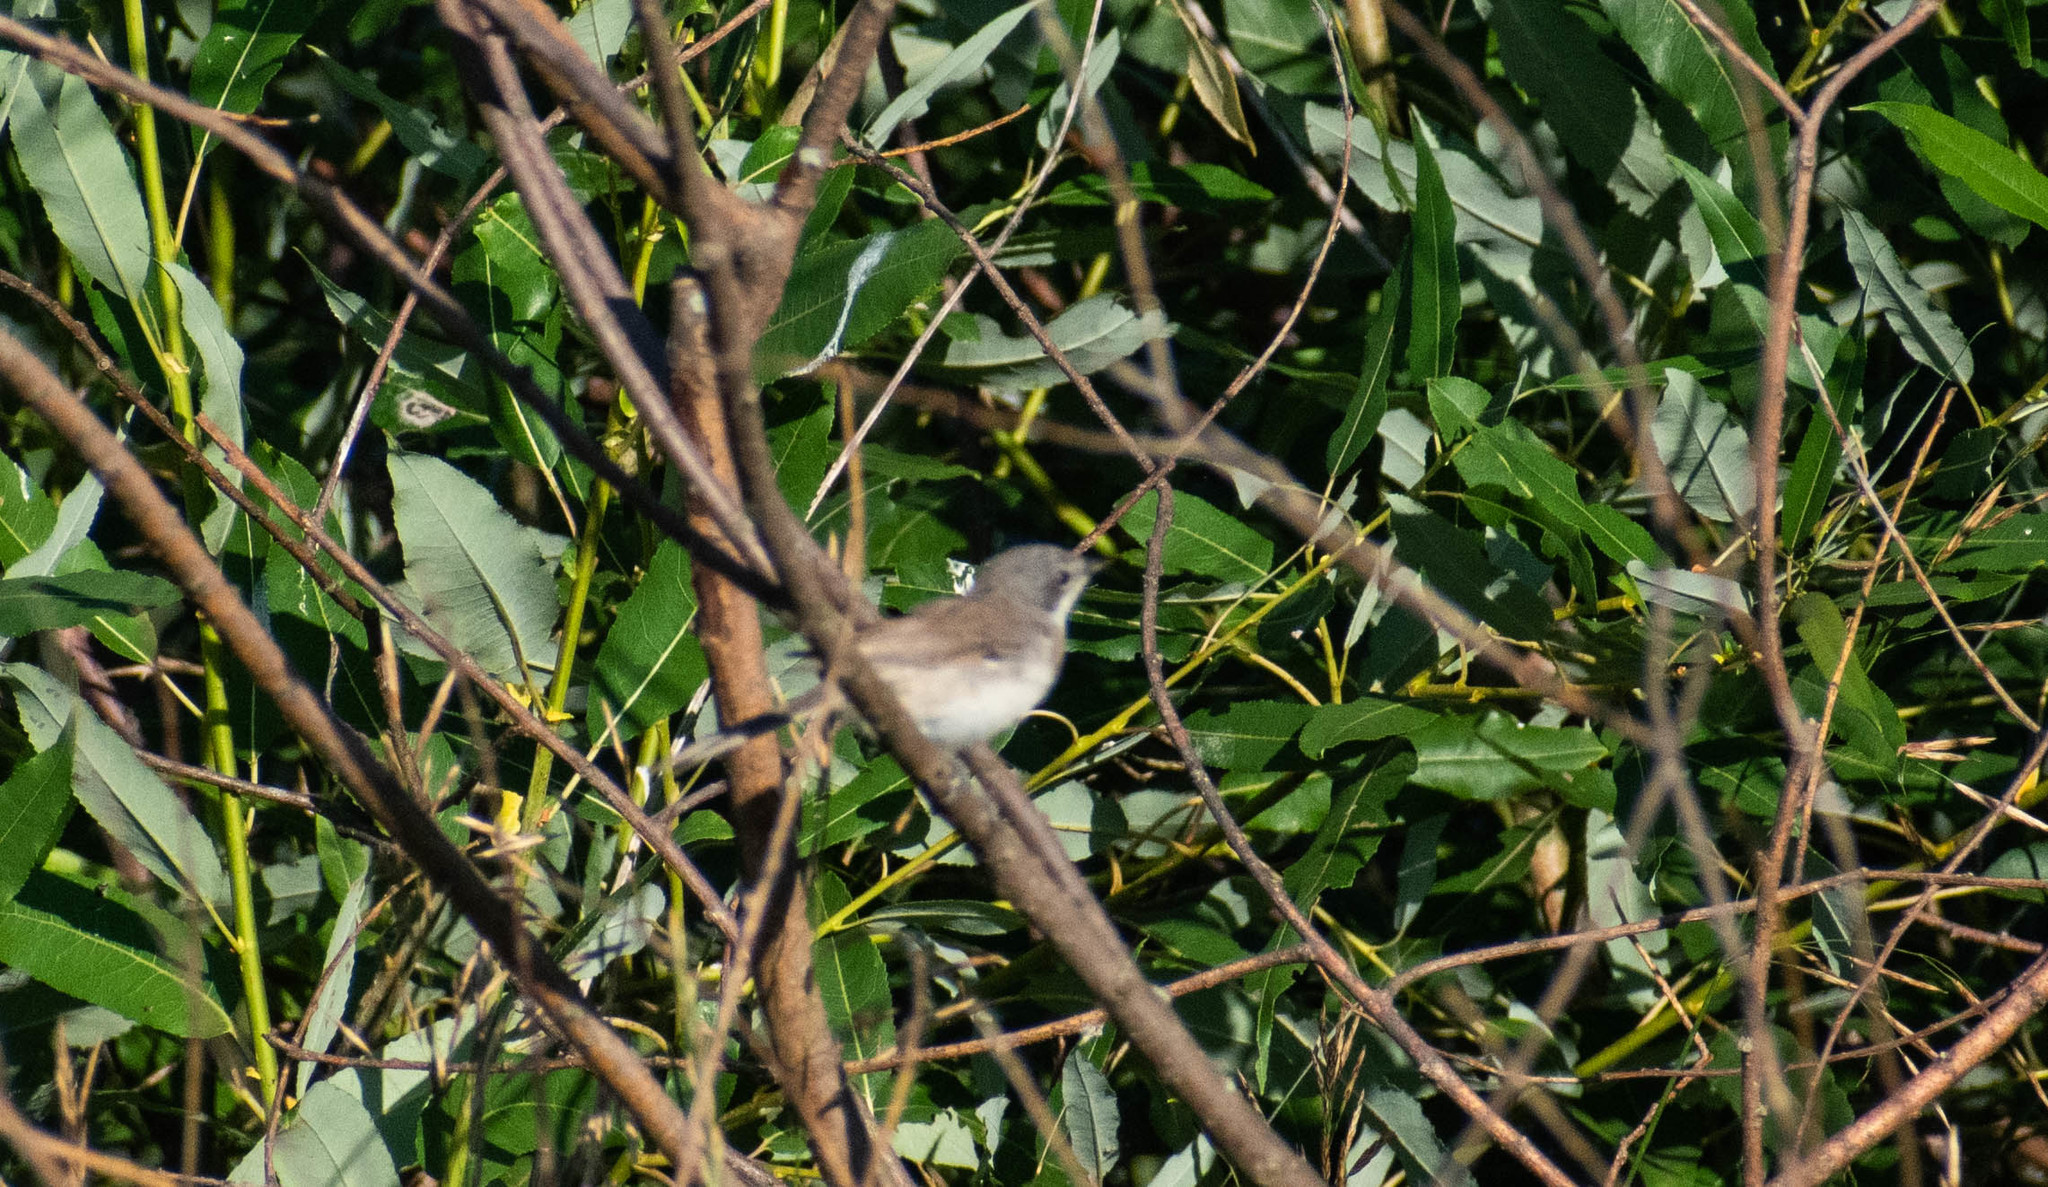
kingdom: Animalia
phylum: Chordata
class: Aves
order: Passeriformes
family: Sylviidae
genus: Sylvia
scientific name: Sylvia curruca
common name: Lesser whitethroat
